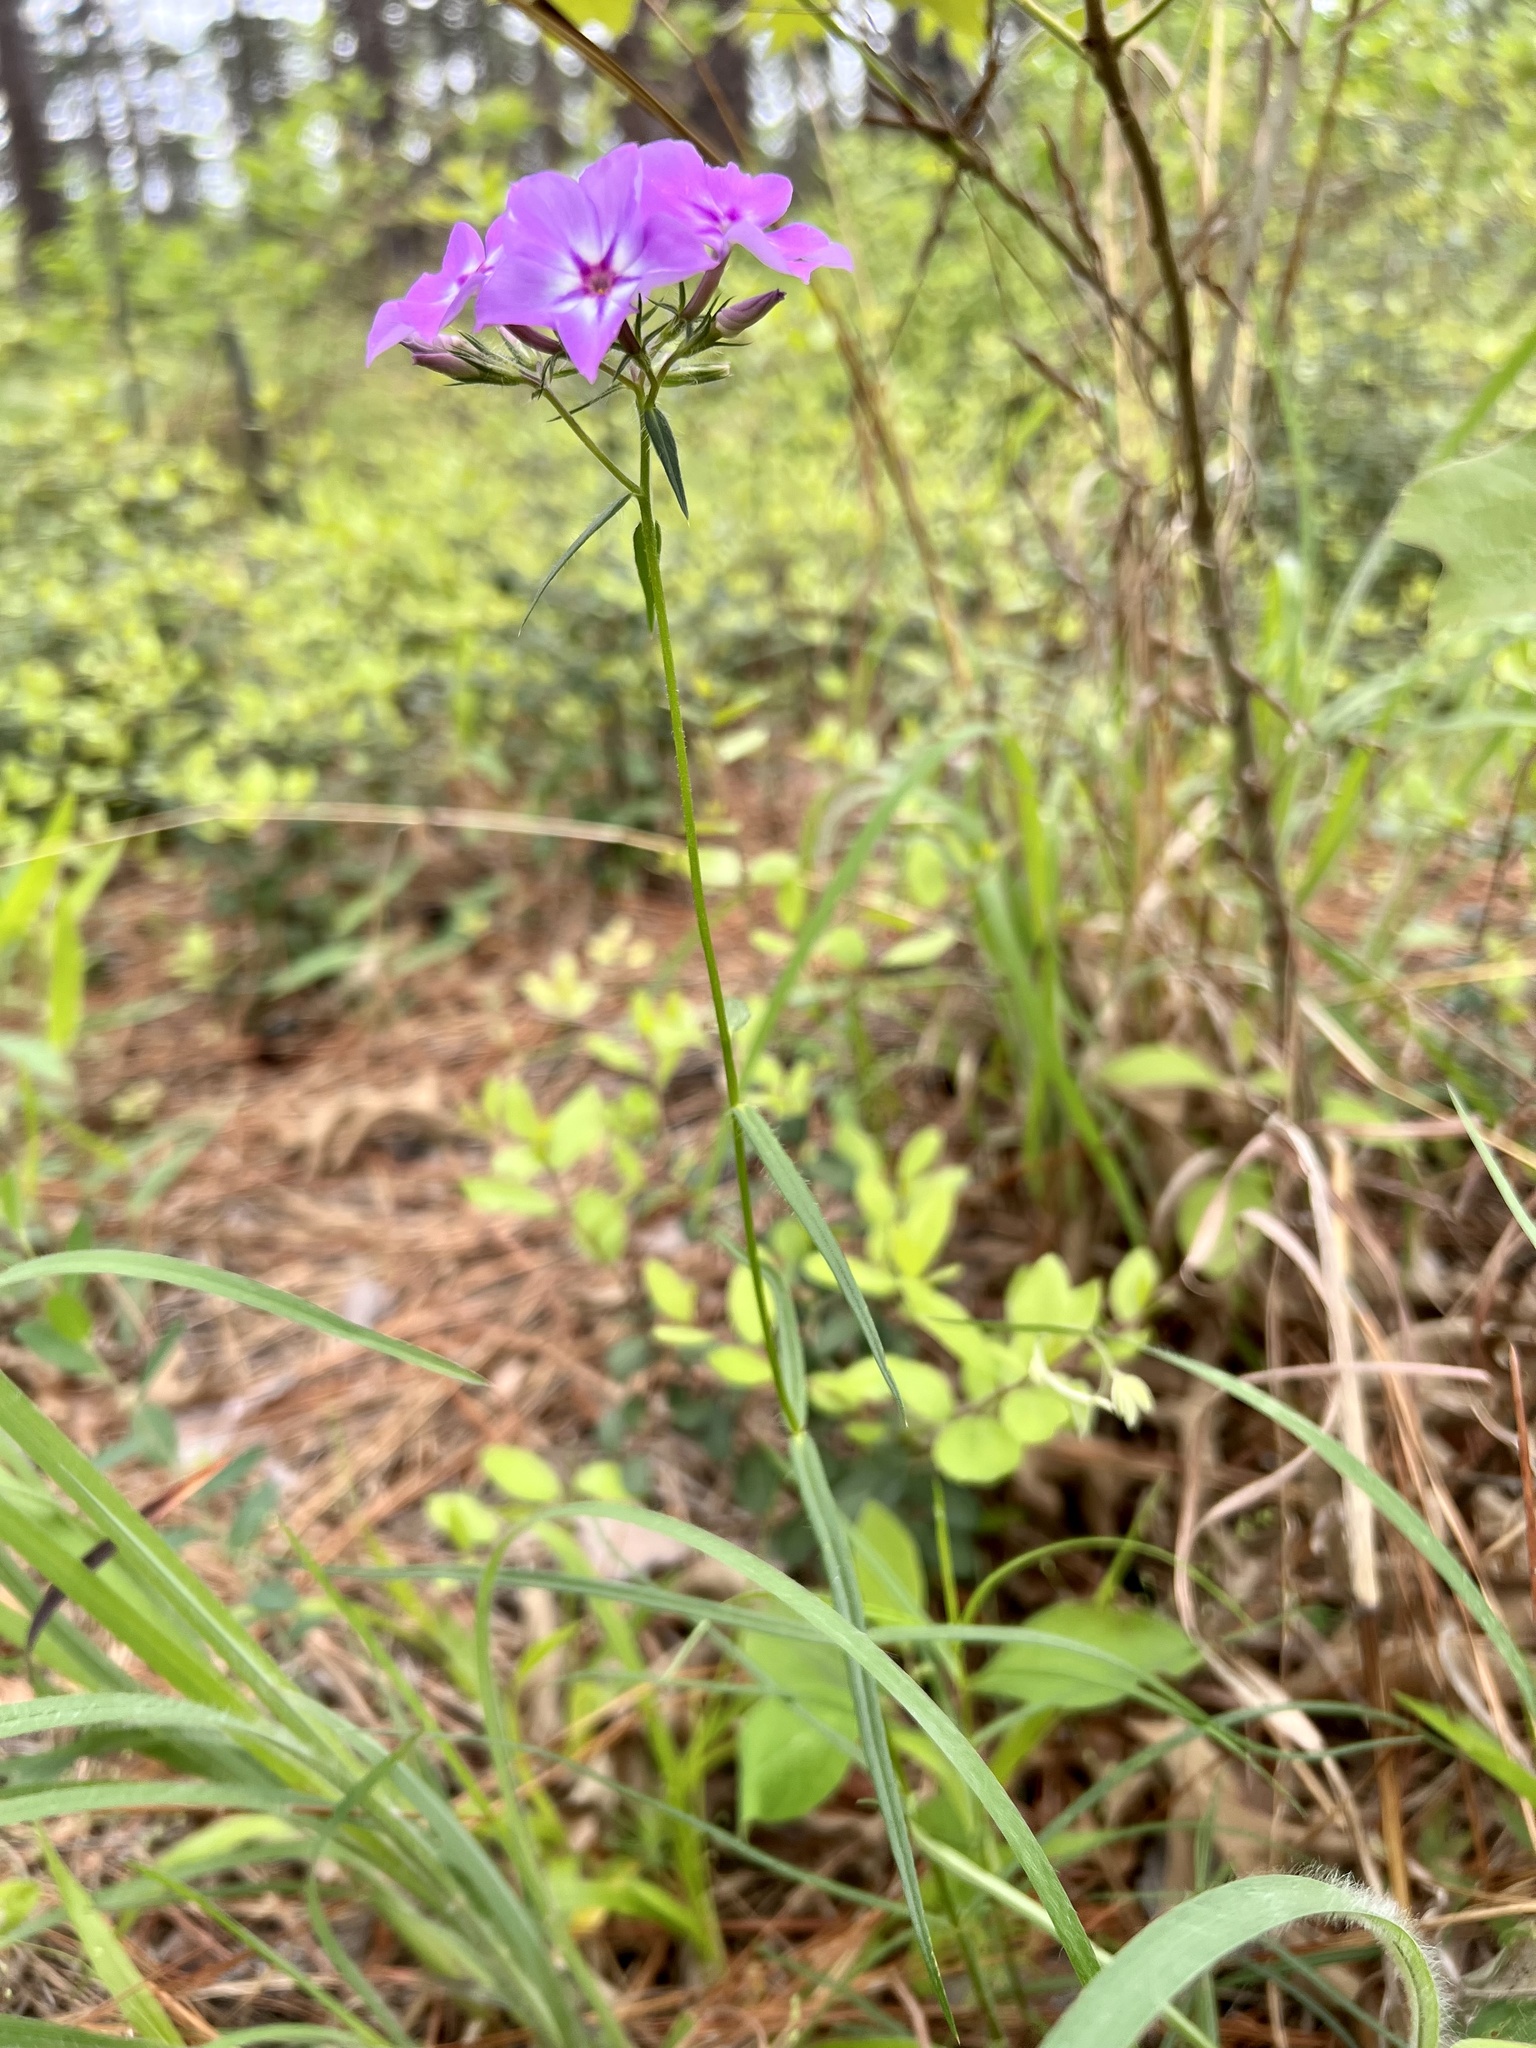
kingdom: Plantae
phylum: Tracheophyta
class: Magnoliopsida
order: Ericales
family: Polemoniaceae
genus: Phlox
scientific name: Phlox pilosa
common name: Prairie phlox
